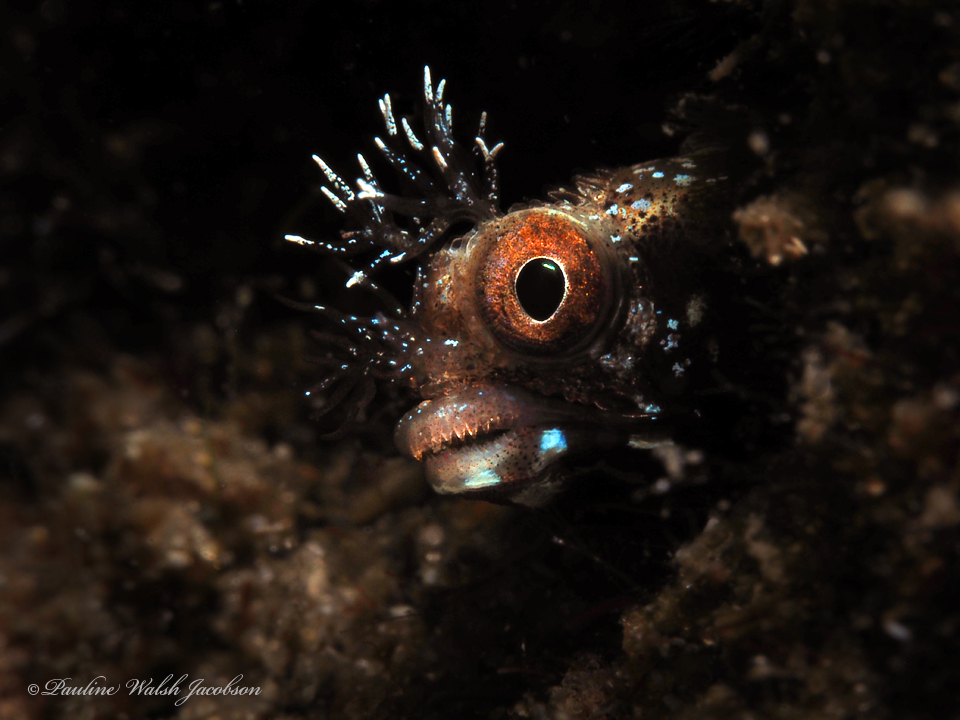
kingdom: Animalia
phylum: Chordata
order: Perciformes
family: Chaenopsidae
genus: Acanthemblemaria
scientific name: Acanthemblemaria aspera
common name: Roughhead blenny
